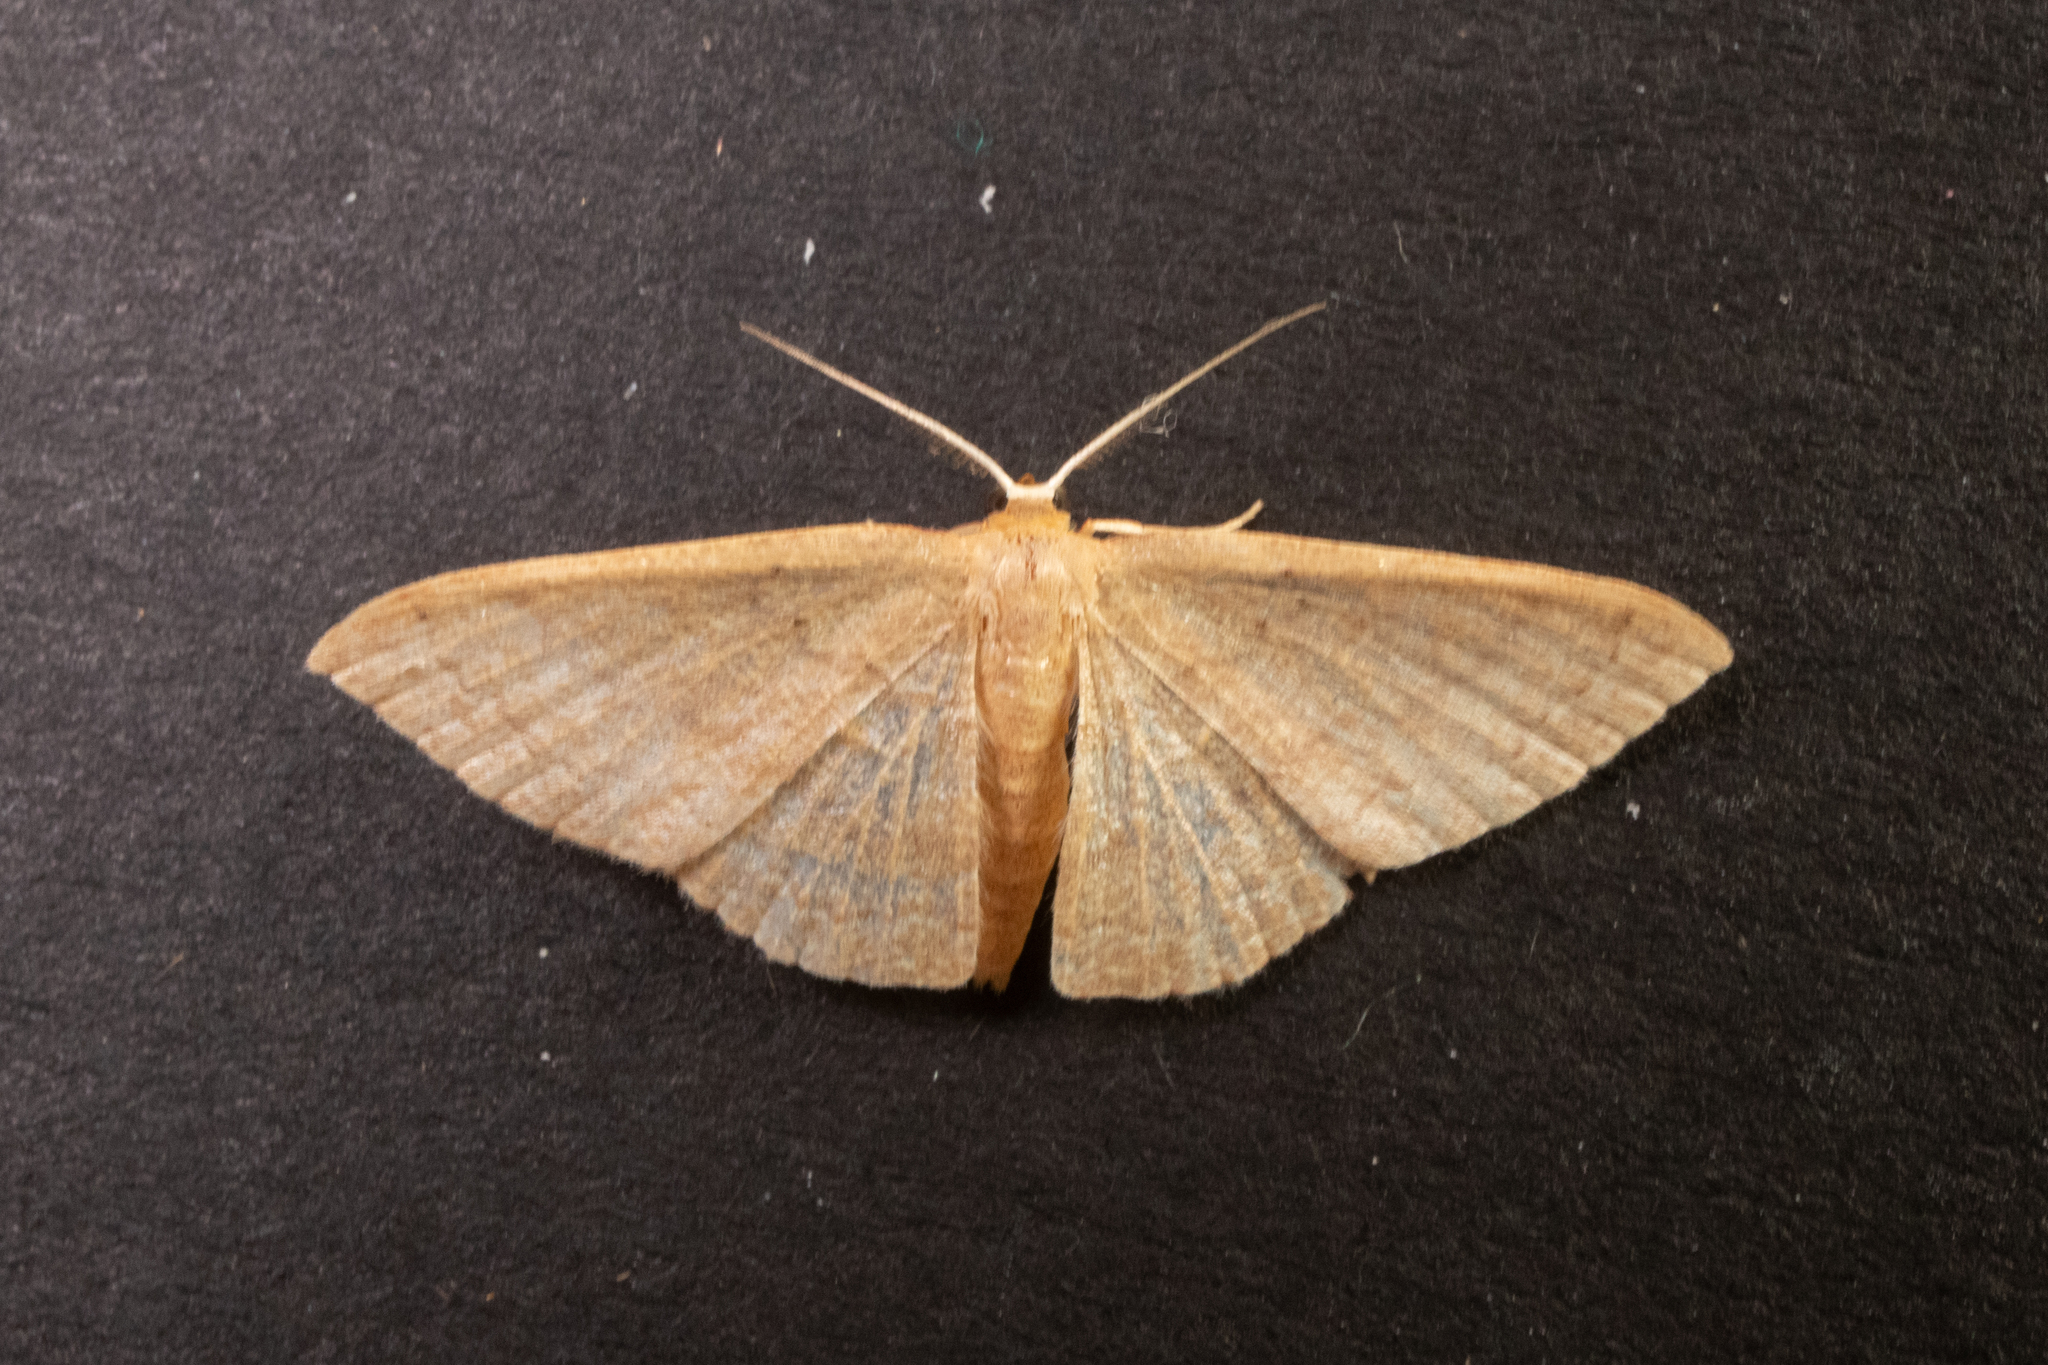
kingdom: Animalia
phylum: Arthropoda
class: Insecta
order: Lepidoptera
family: Geometridae
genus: Pleuroprucha
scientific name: Pleuroprucha insulsaria
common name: Common tan wave
